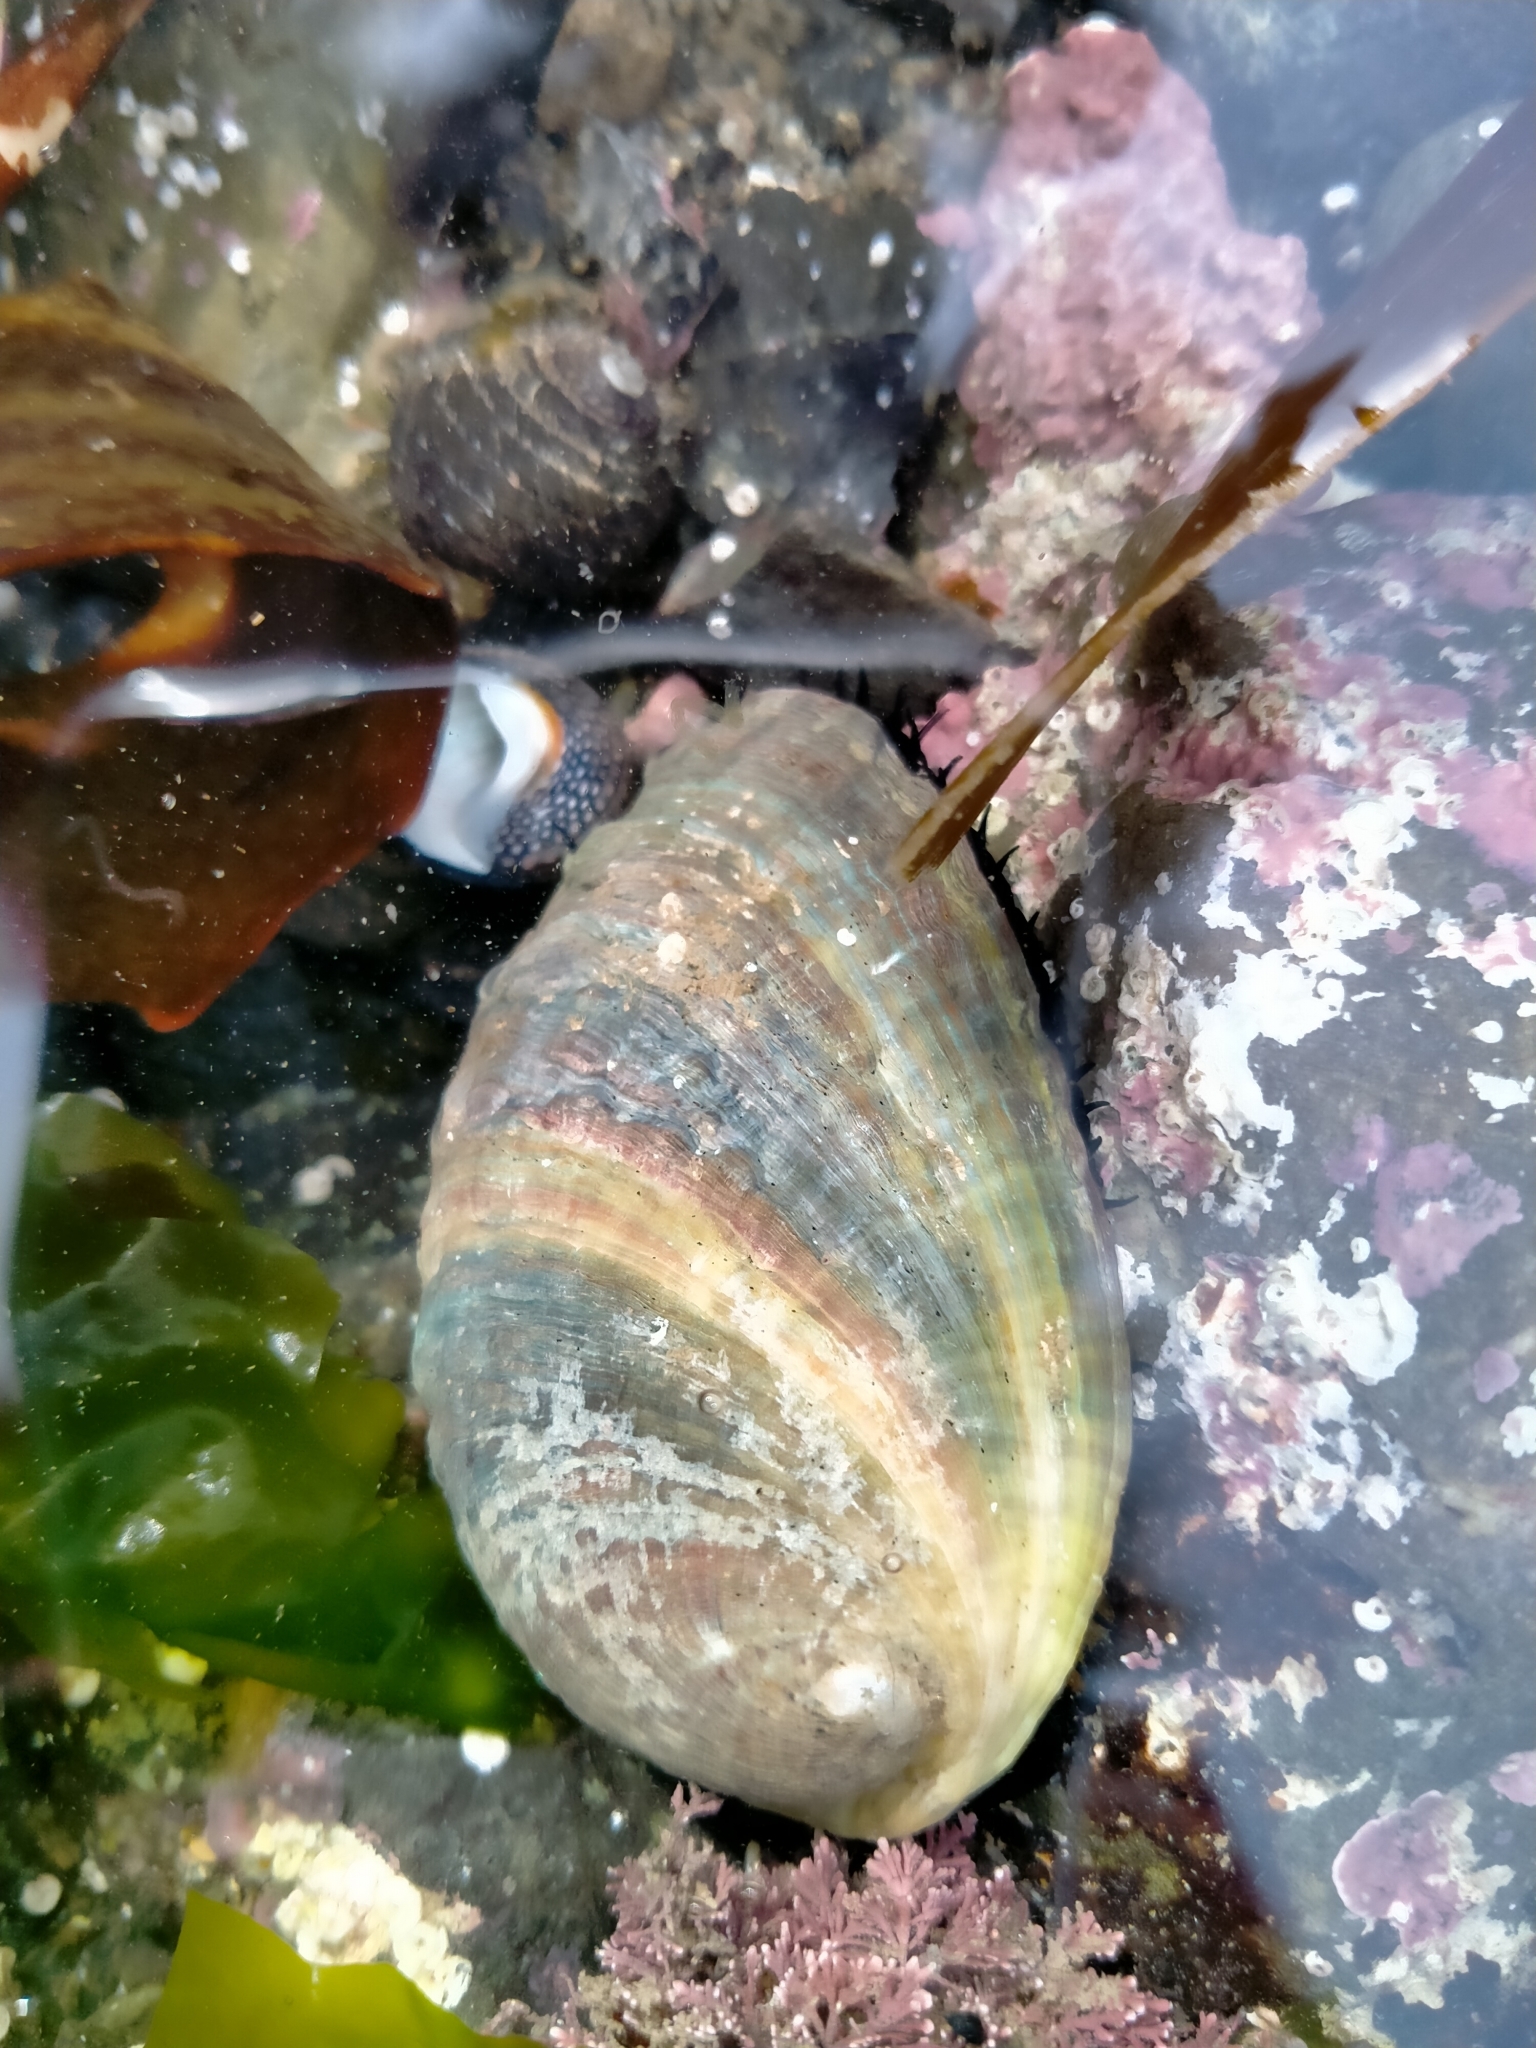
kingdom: Animalia
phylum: Mollusca
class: Gastropoda
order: Lepetellida
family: Haliotidae
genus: Haliotis
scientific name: Haliotis iris
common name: Abalone
